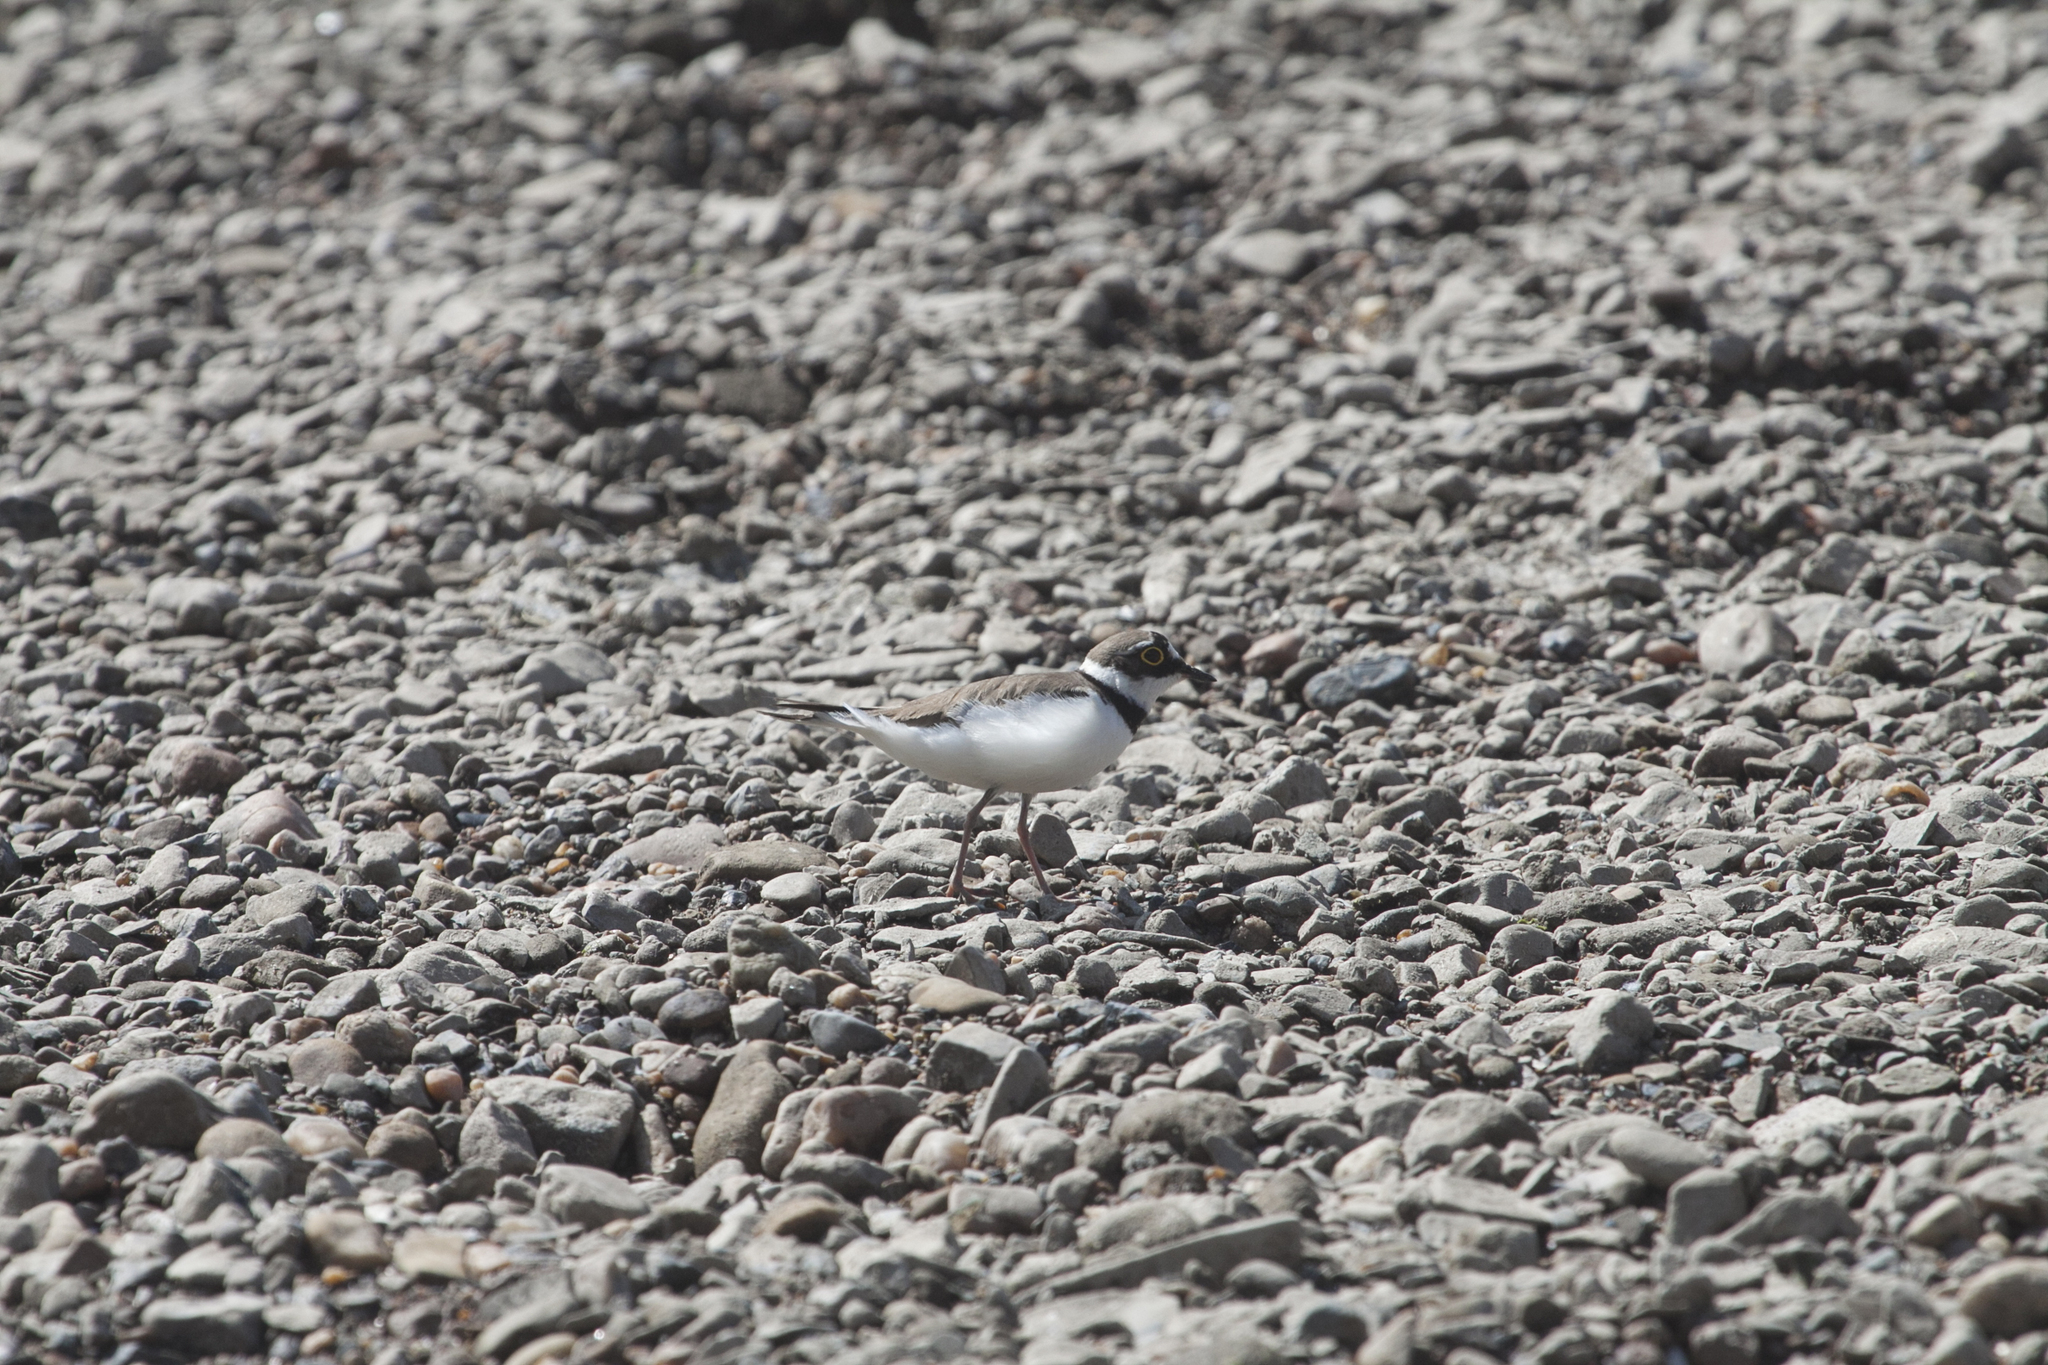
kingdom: Animalia
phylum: Chordata
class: Aves
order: Charadriiformes
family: Charadriidae
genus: Charadrius
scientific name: Charadrius dubius
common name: Little ringed plover
